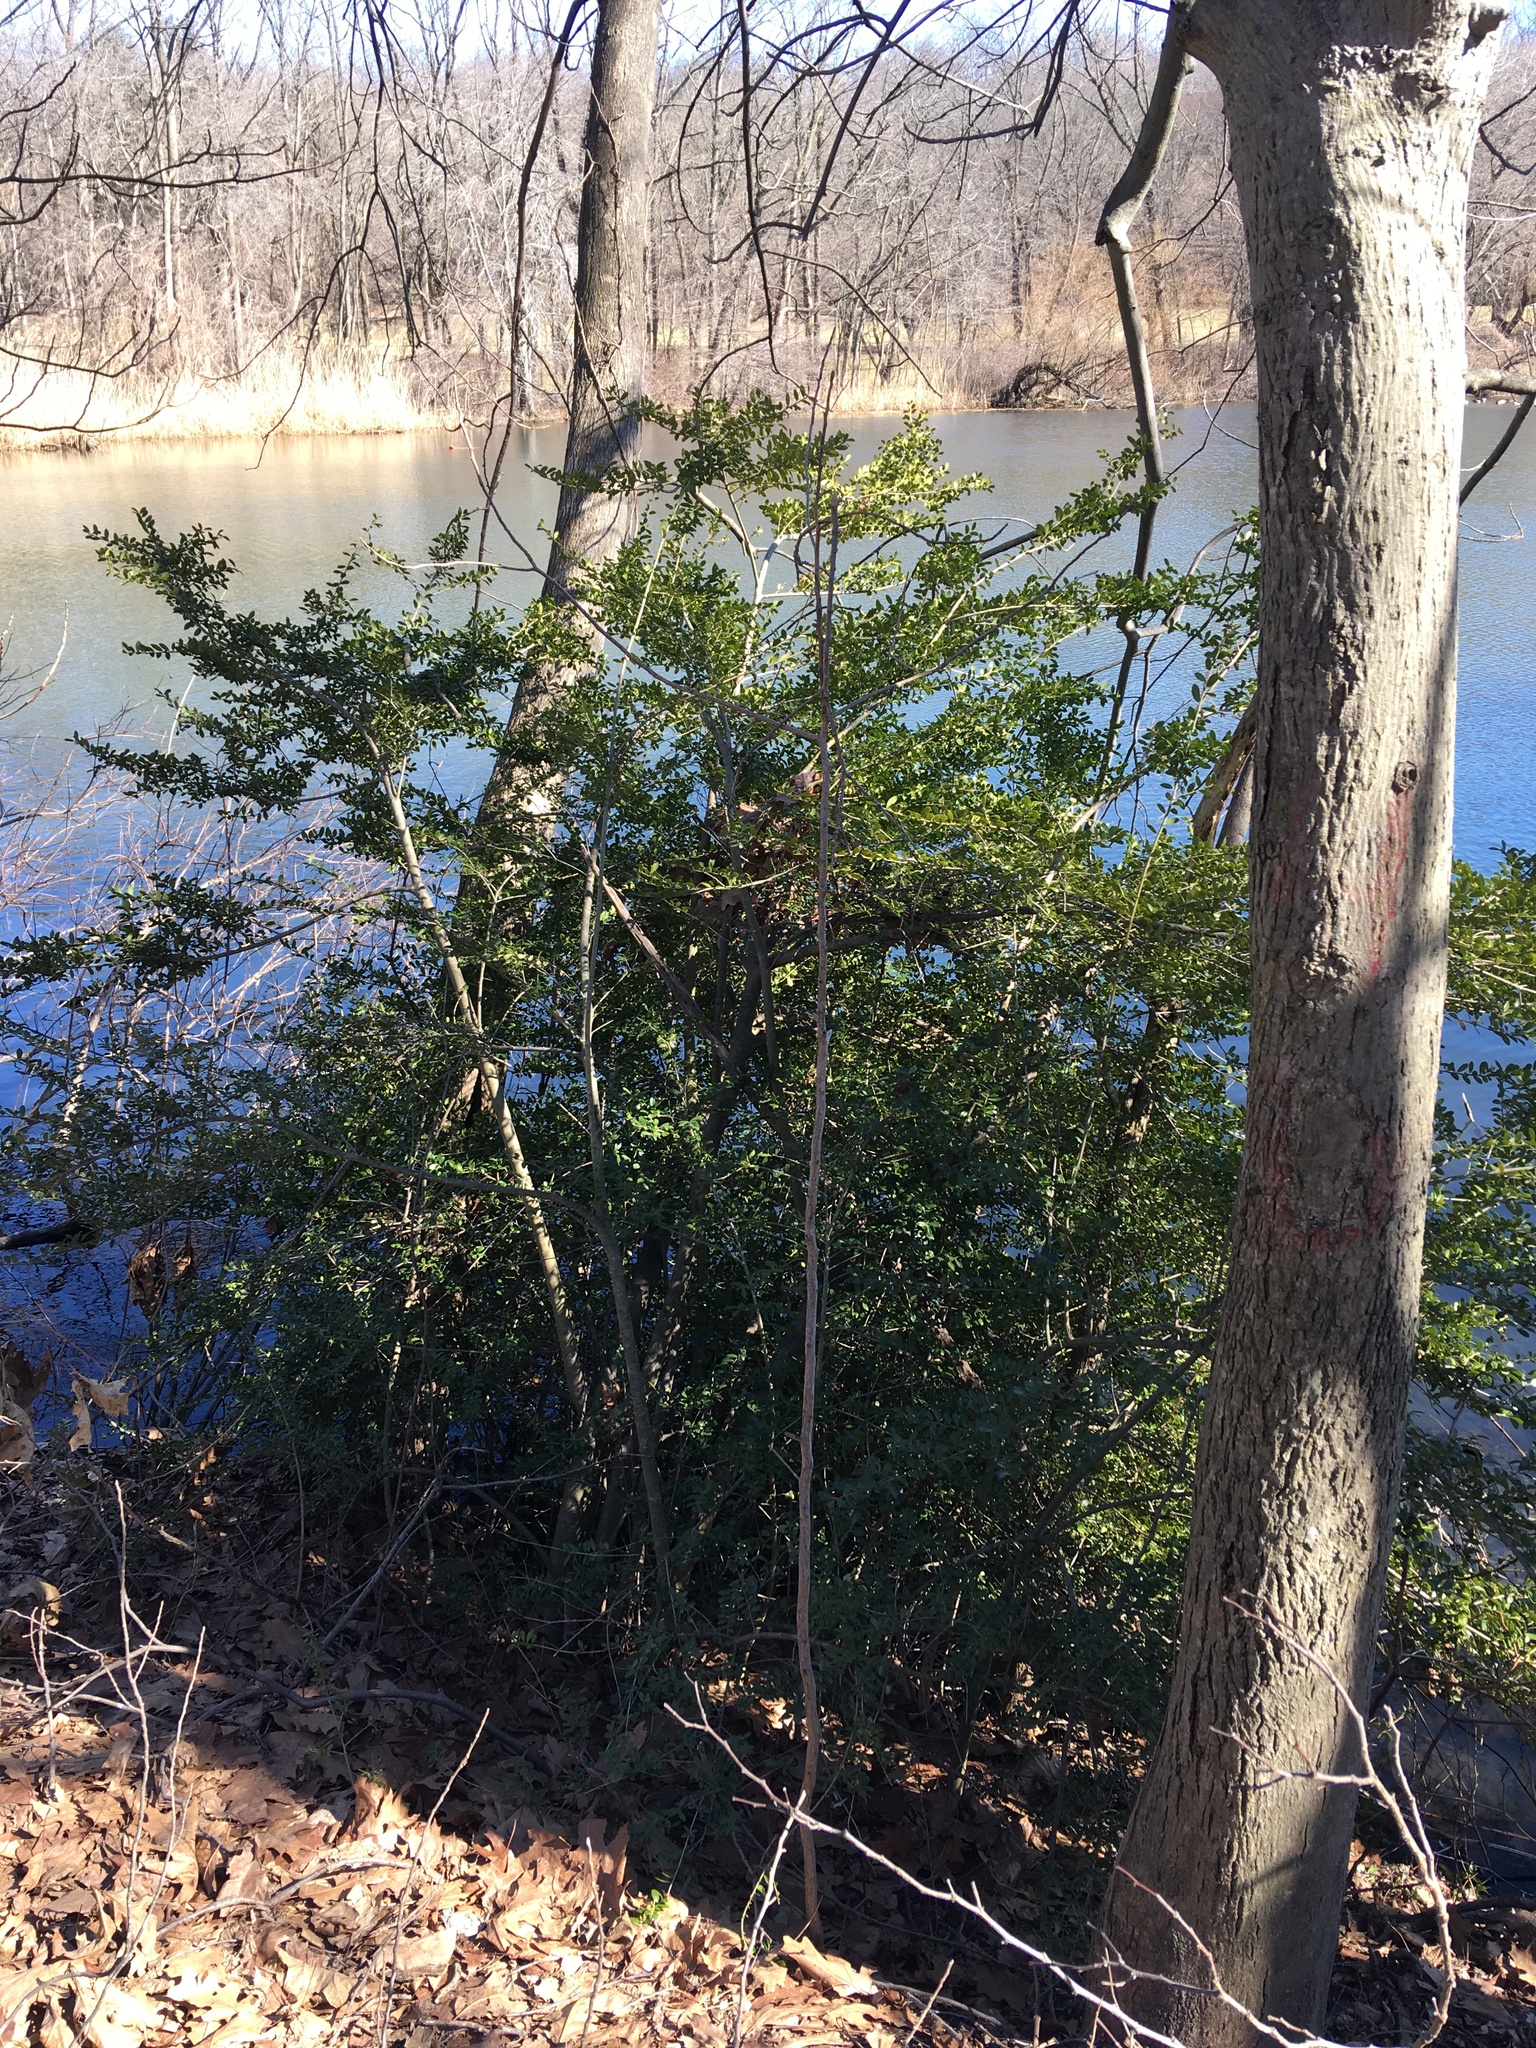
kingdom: Plantae
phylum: Tracheophyta
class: Magnoliopsida
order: Aquifoliales
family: Aquifoliaceae
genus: Ilex
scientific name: Ilex crenata
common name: Japanese holly
